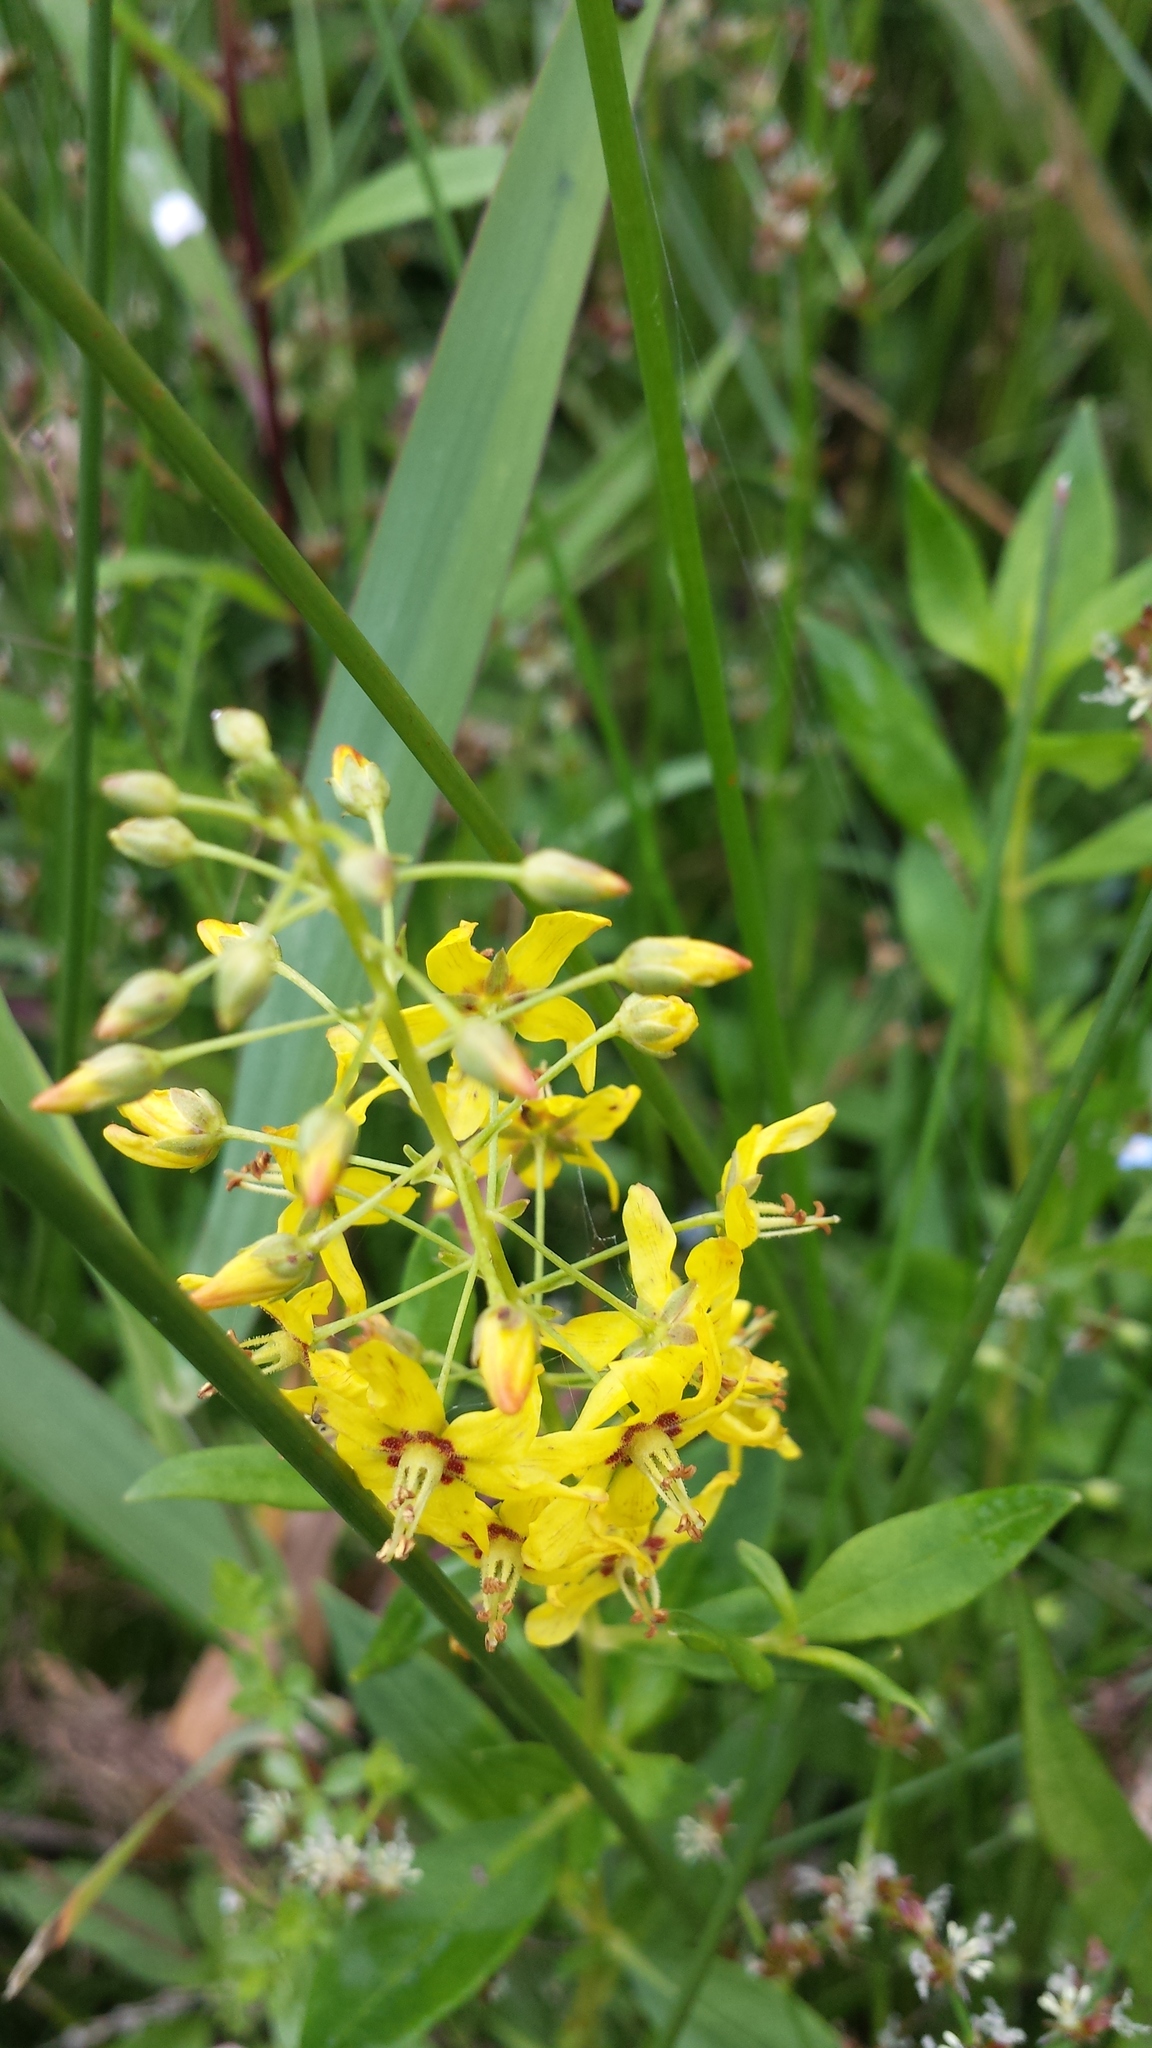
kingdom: Plantae
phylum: Tracheophyta
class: Magnoliopsida
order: Ericales
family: Primulaceae
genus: Lysimachia
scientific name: Lysimachia terrestris
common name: Lake loosestrife
